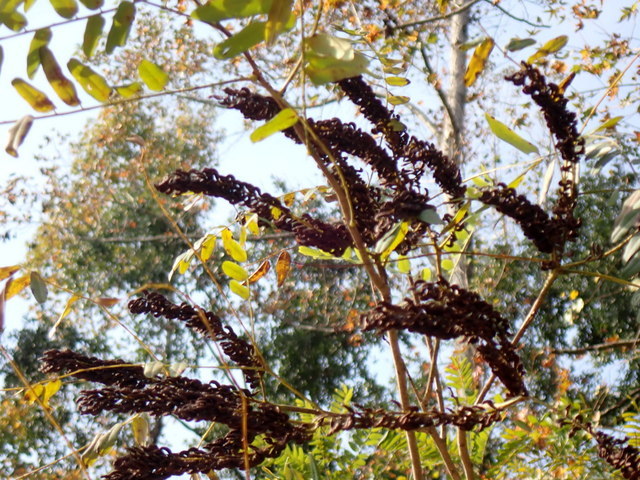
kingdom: Plantae
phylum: Tracheophyta
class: Magnoliopsida
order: Fabales
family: Fabaceae
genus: Amorpha
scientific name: Amorpha fruticosa
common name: False indigo
